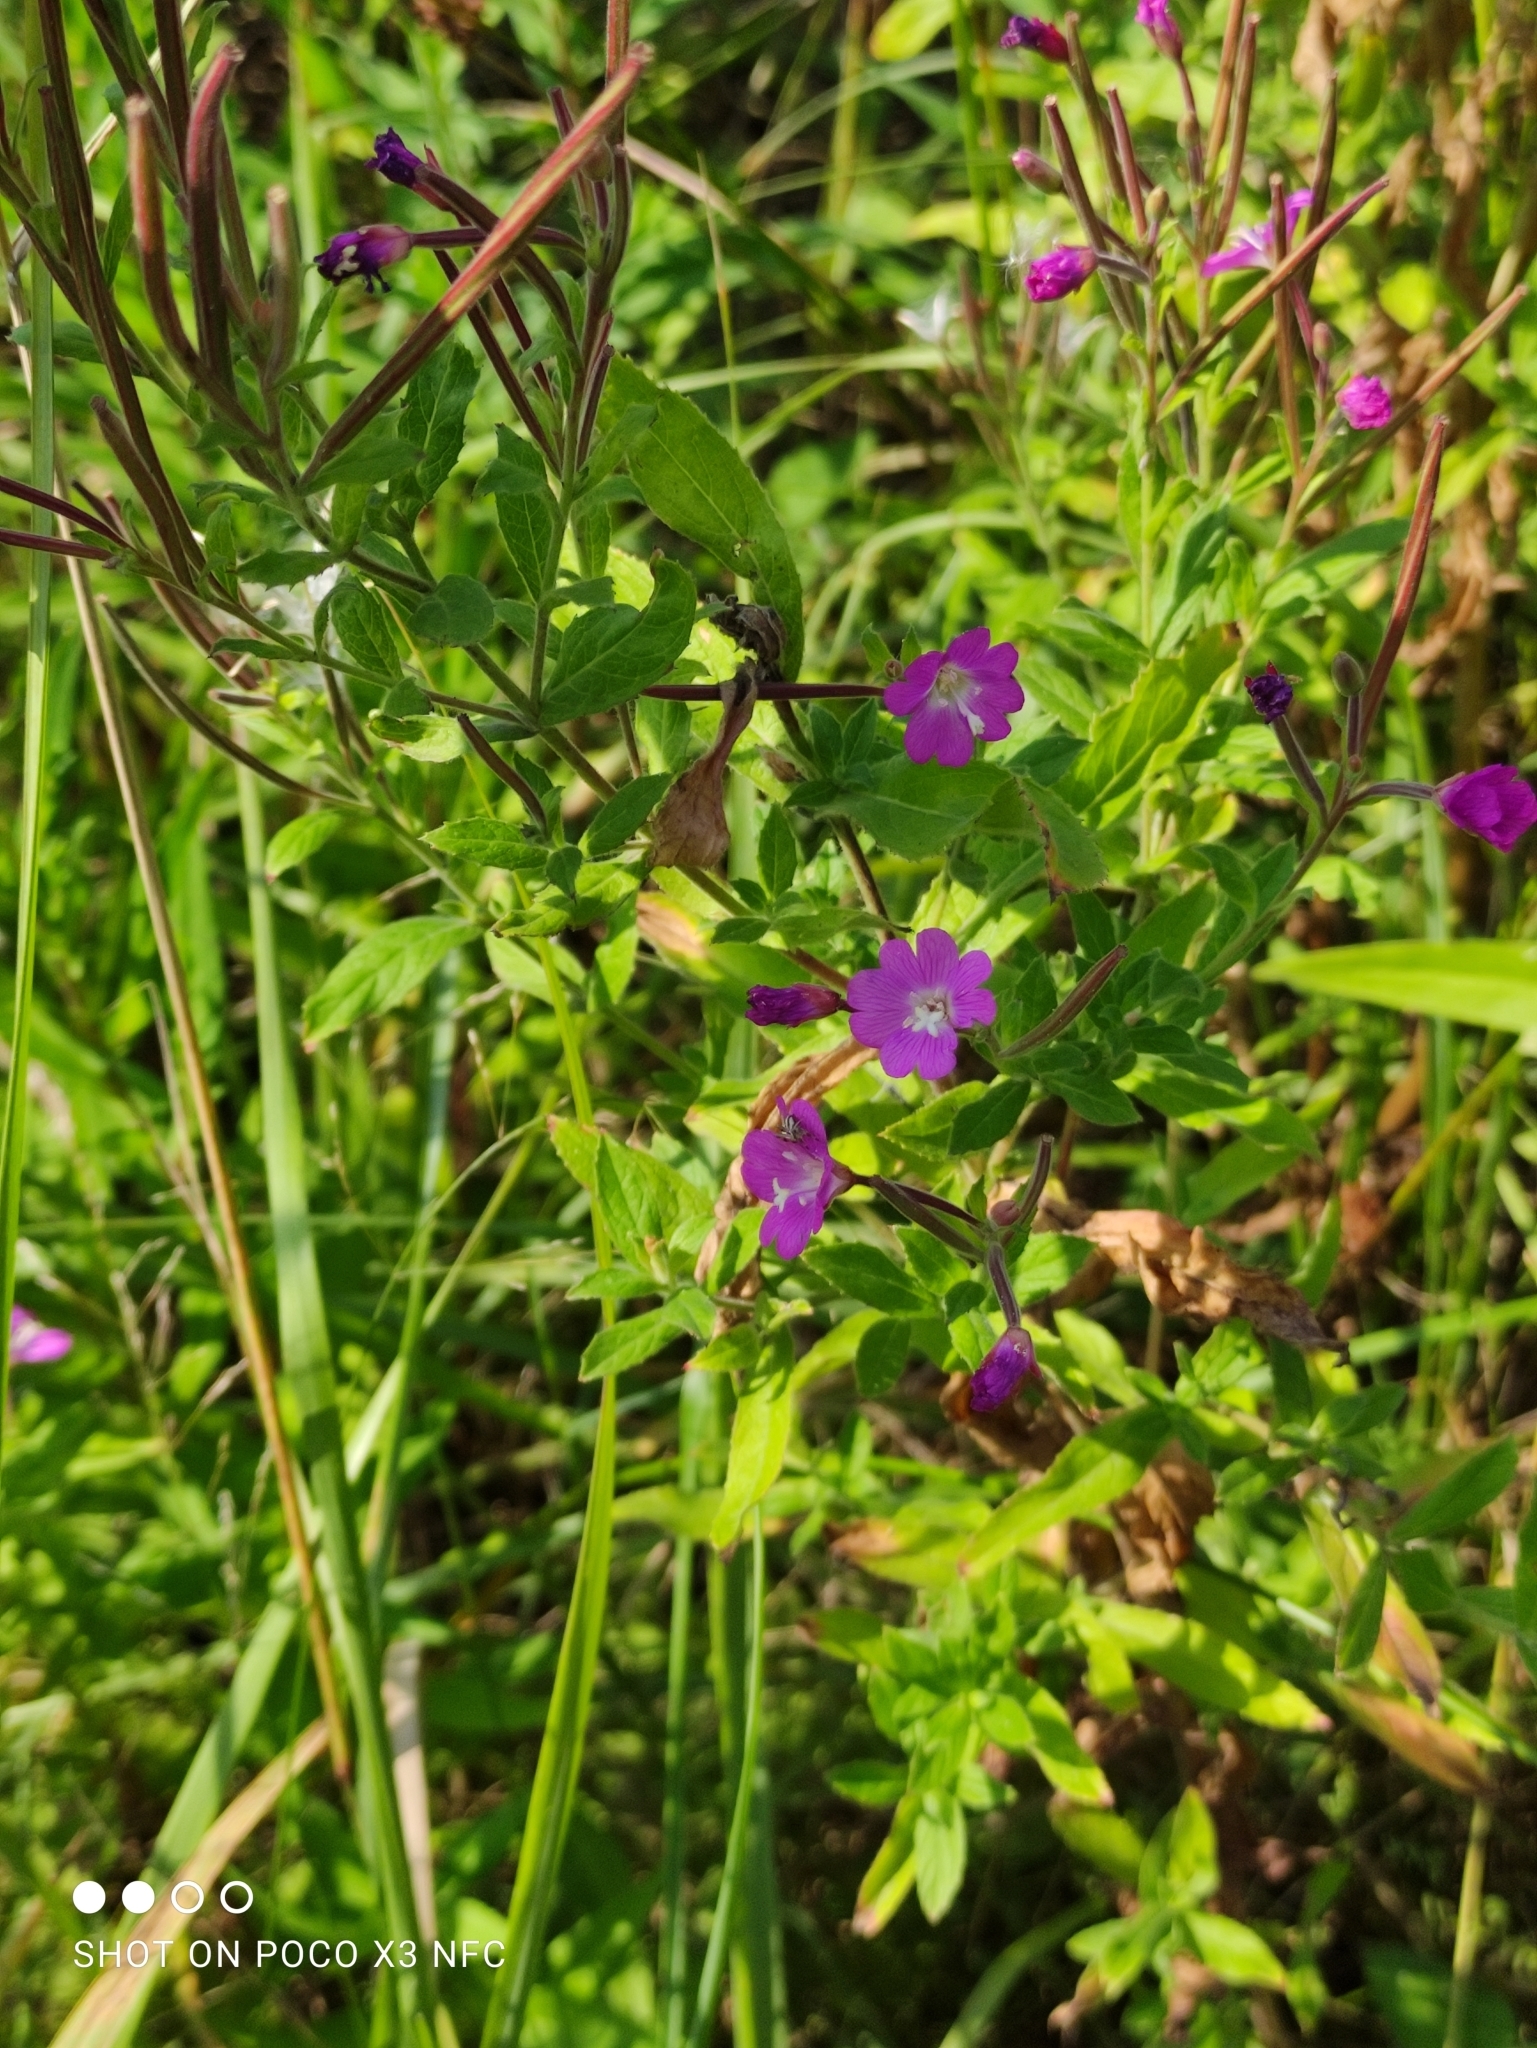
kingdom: Plantae
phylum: Tracheophyta
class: Magnoliopsida
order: Myrtales
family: Onagraceae
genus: Epilobium
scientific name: Epilobium hirsutum
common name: Great willowherb
